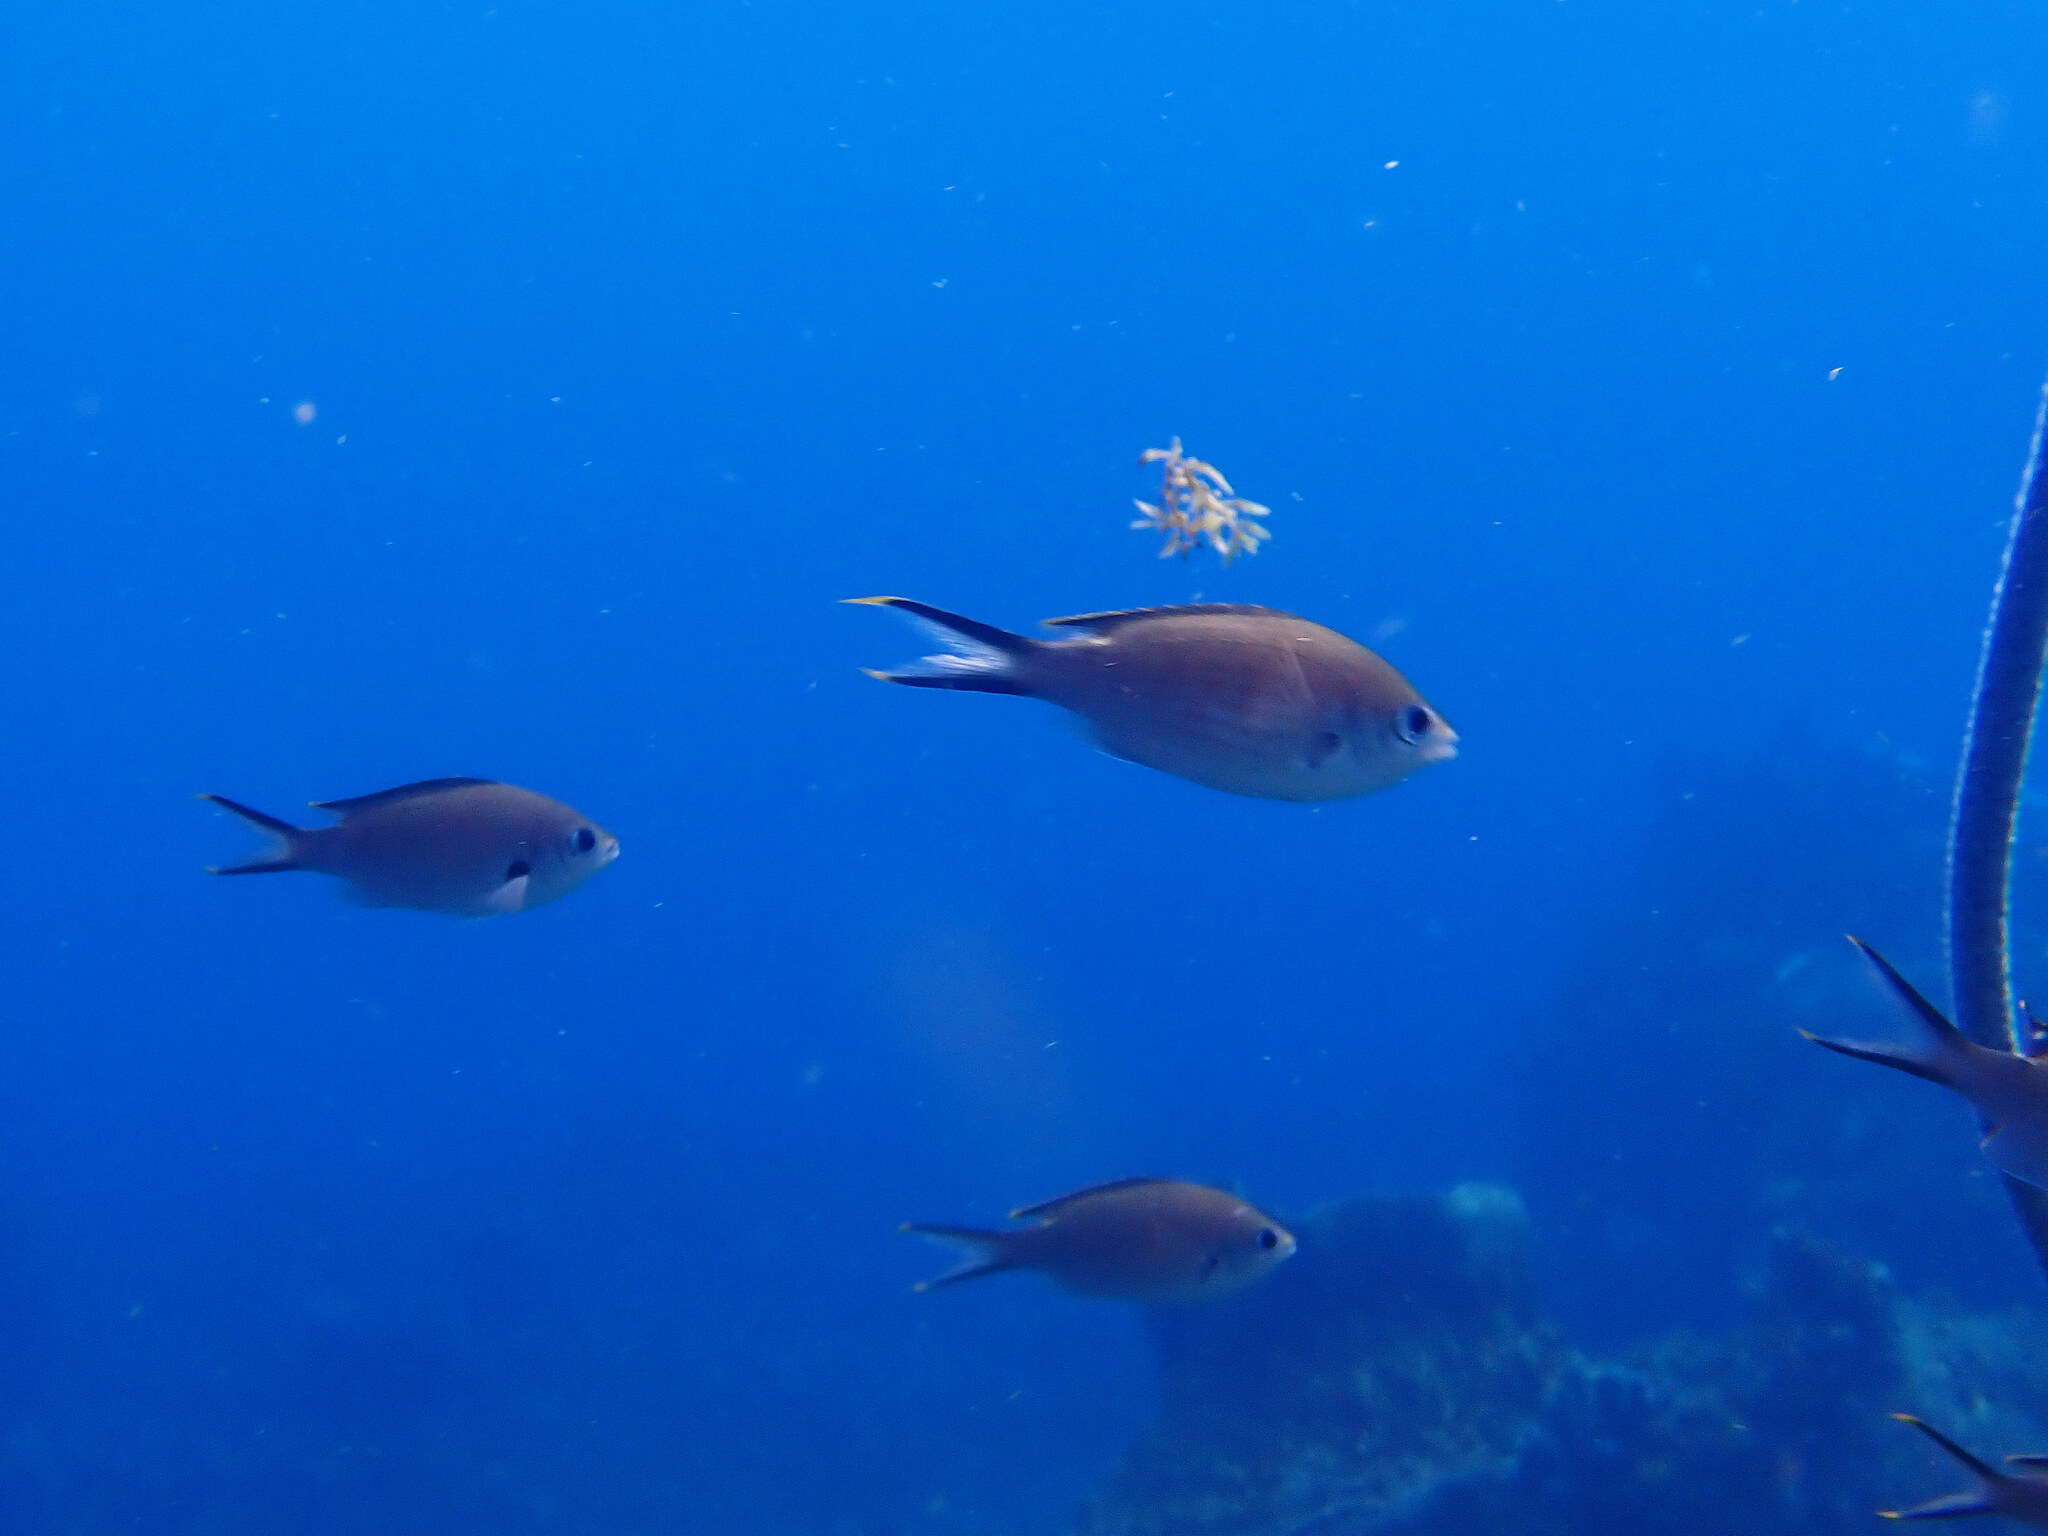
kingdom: Animalia
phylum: Chordata
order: Perciformes
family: Pomacentridae
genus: Chromis
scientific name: Chromis multilineata
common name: Brown chromis
